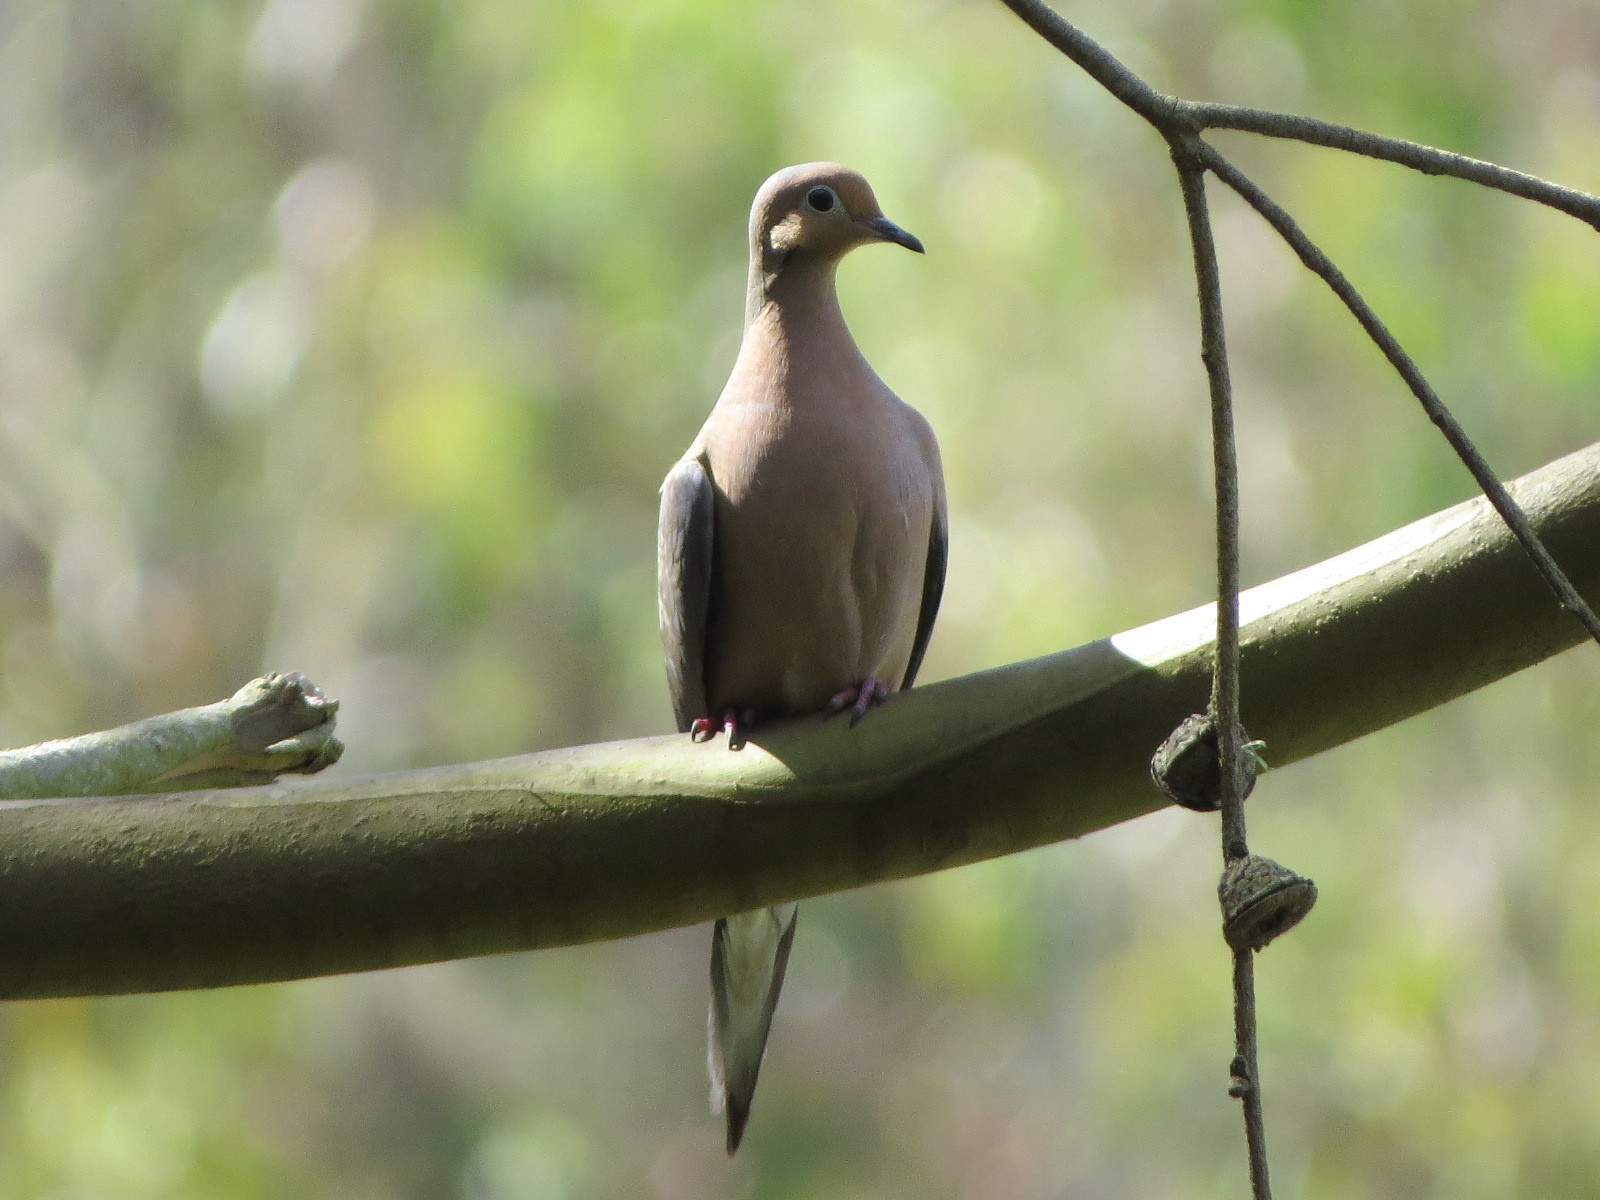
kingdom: Animalia
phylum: Chordata
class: Aves
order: Columbiformes
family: Columbidae
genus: Zenaida
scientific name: Zenaida macroura
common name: Mourning dove
